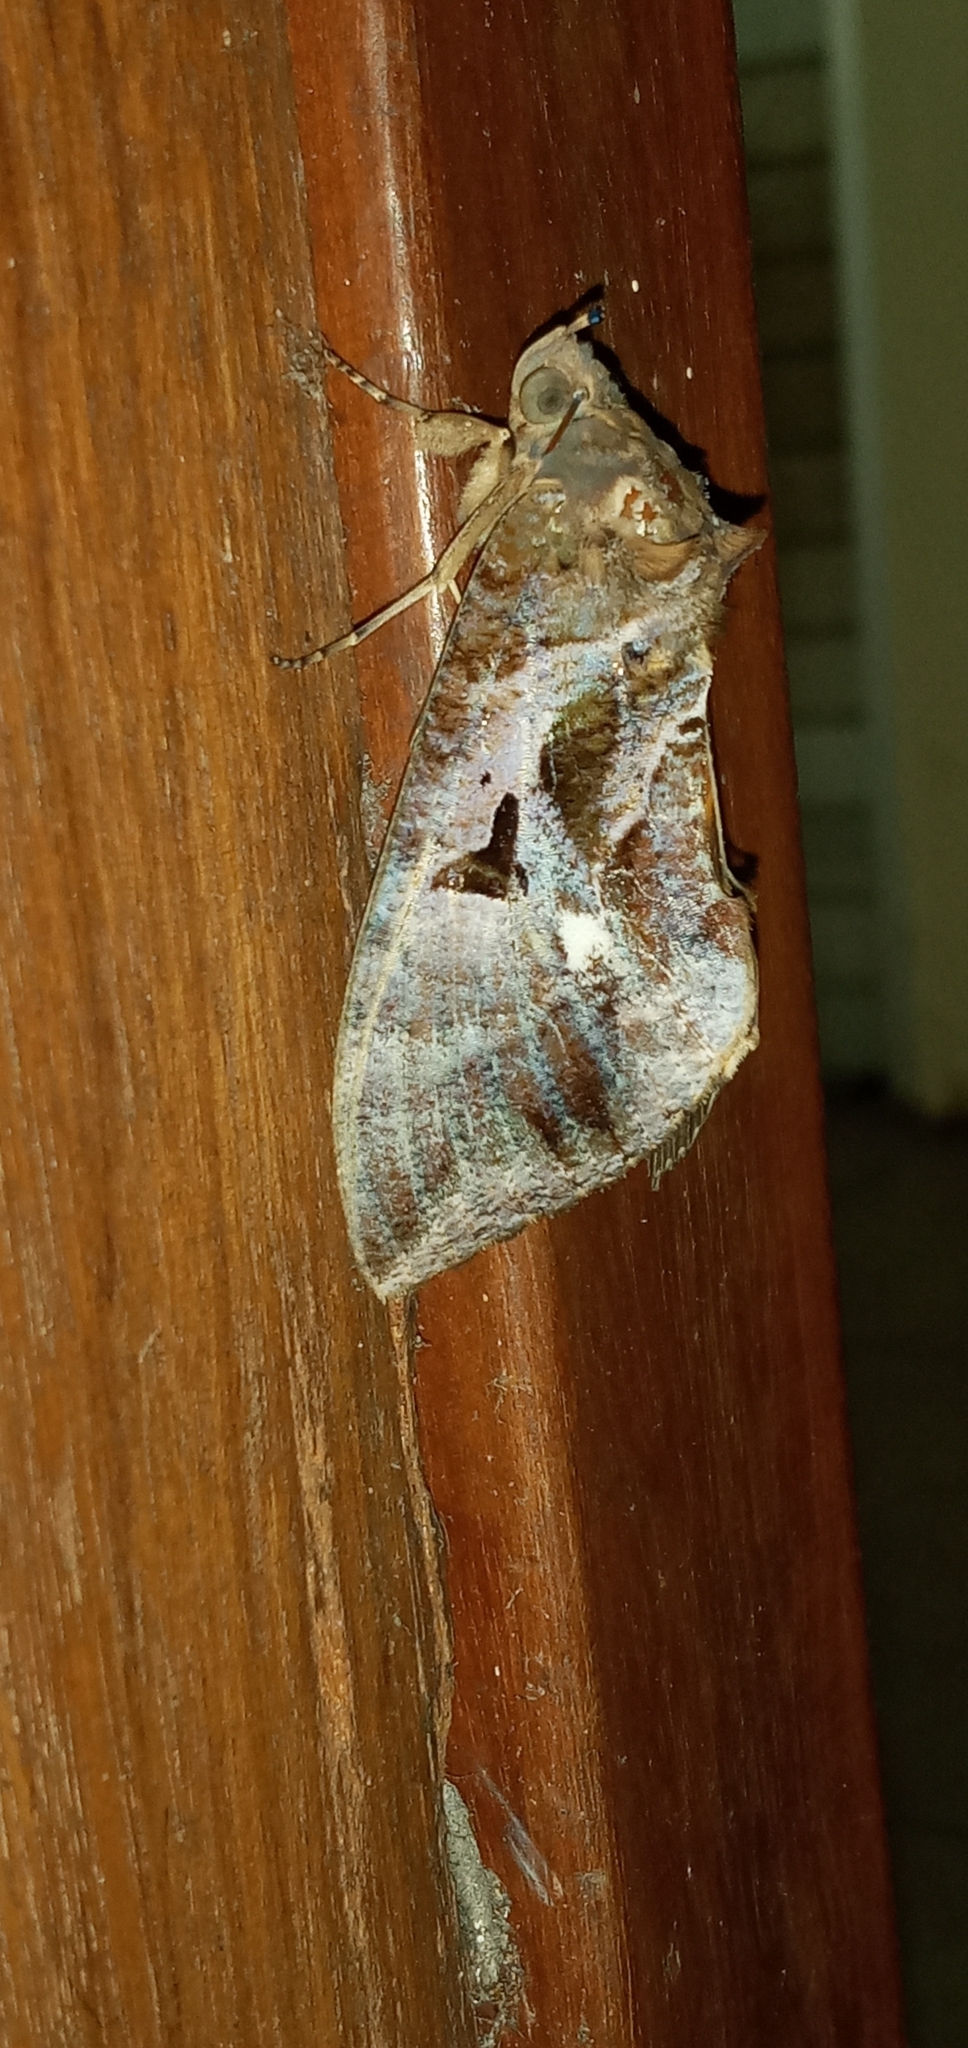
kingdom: Animalia
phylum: Arthropoda
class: Insecta
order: Lepidoptera
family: Erebidae
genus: Eudocima
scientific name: Eudocima phalonia
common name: Wasp
